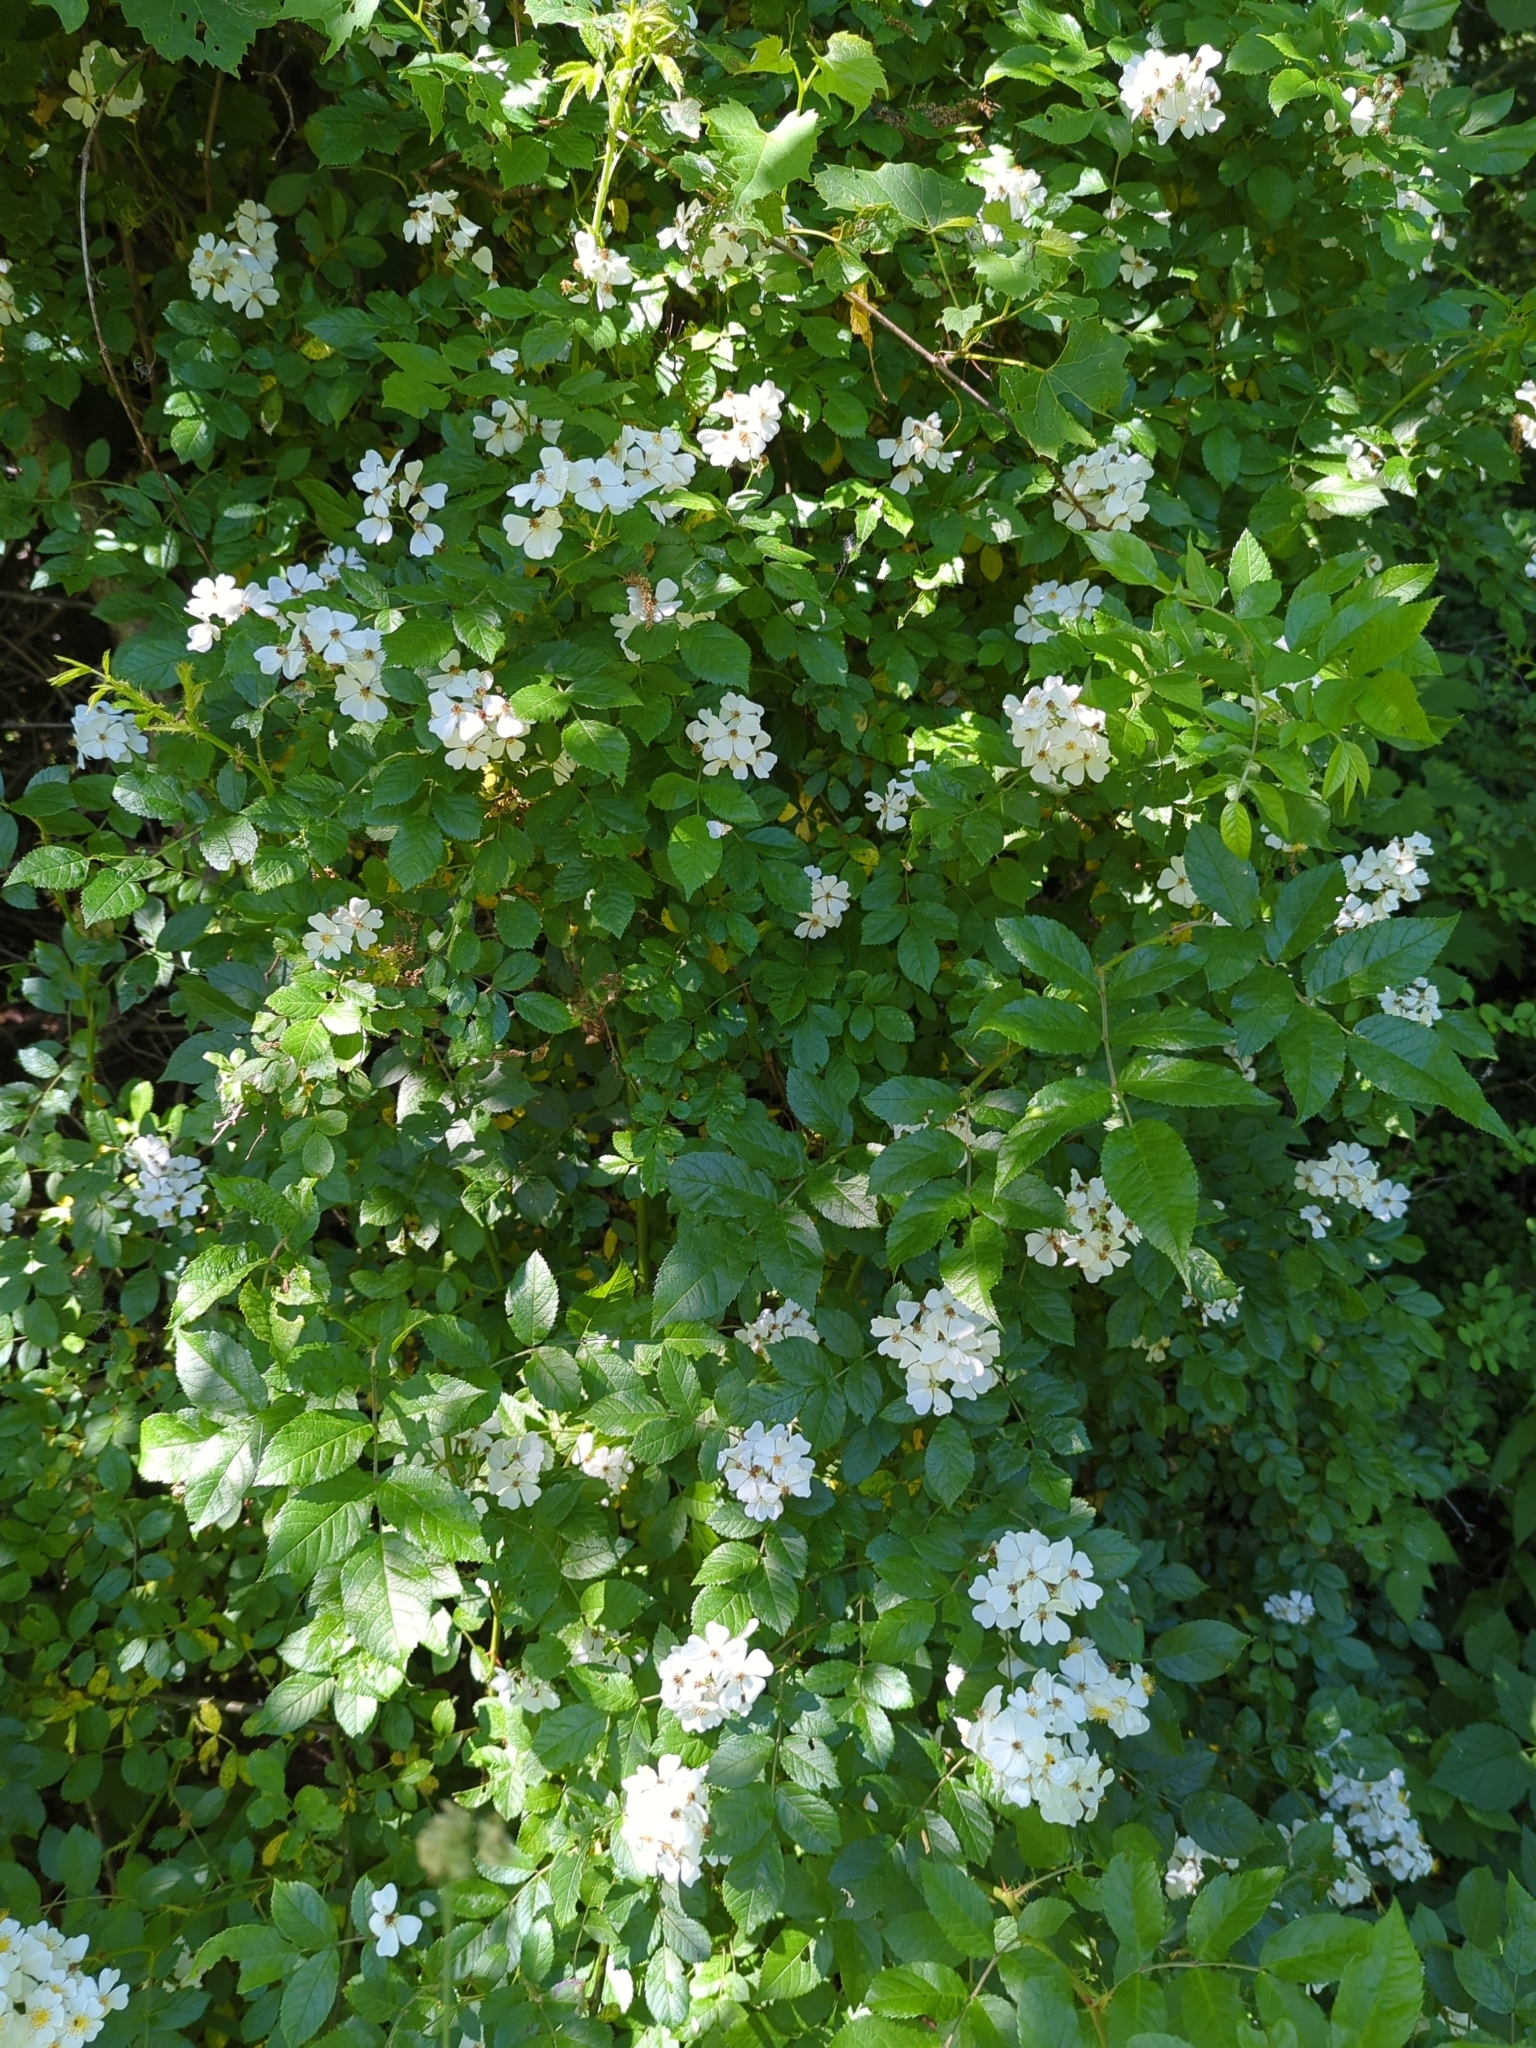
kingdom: Plantae
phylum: Tracheophyta
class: Magnoliopsida
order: Rosales
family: Rosaceae
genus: Rosa
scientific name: Rosa multiflora
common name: Multiflora rose
